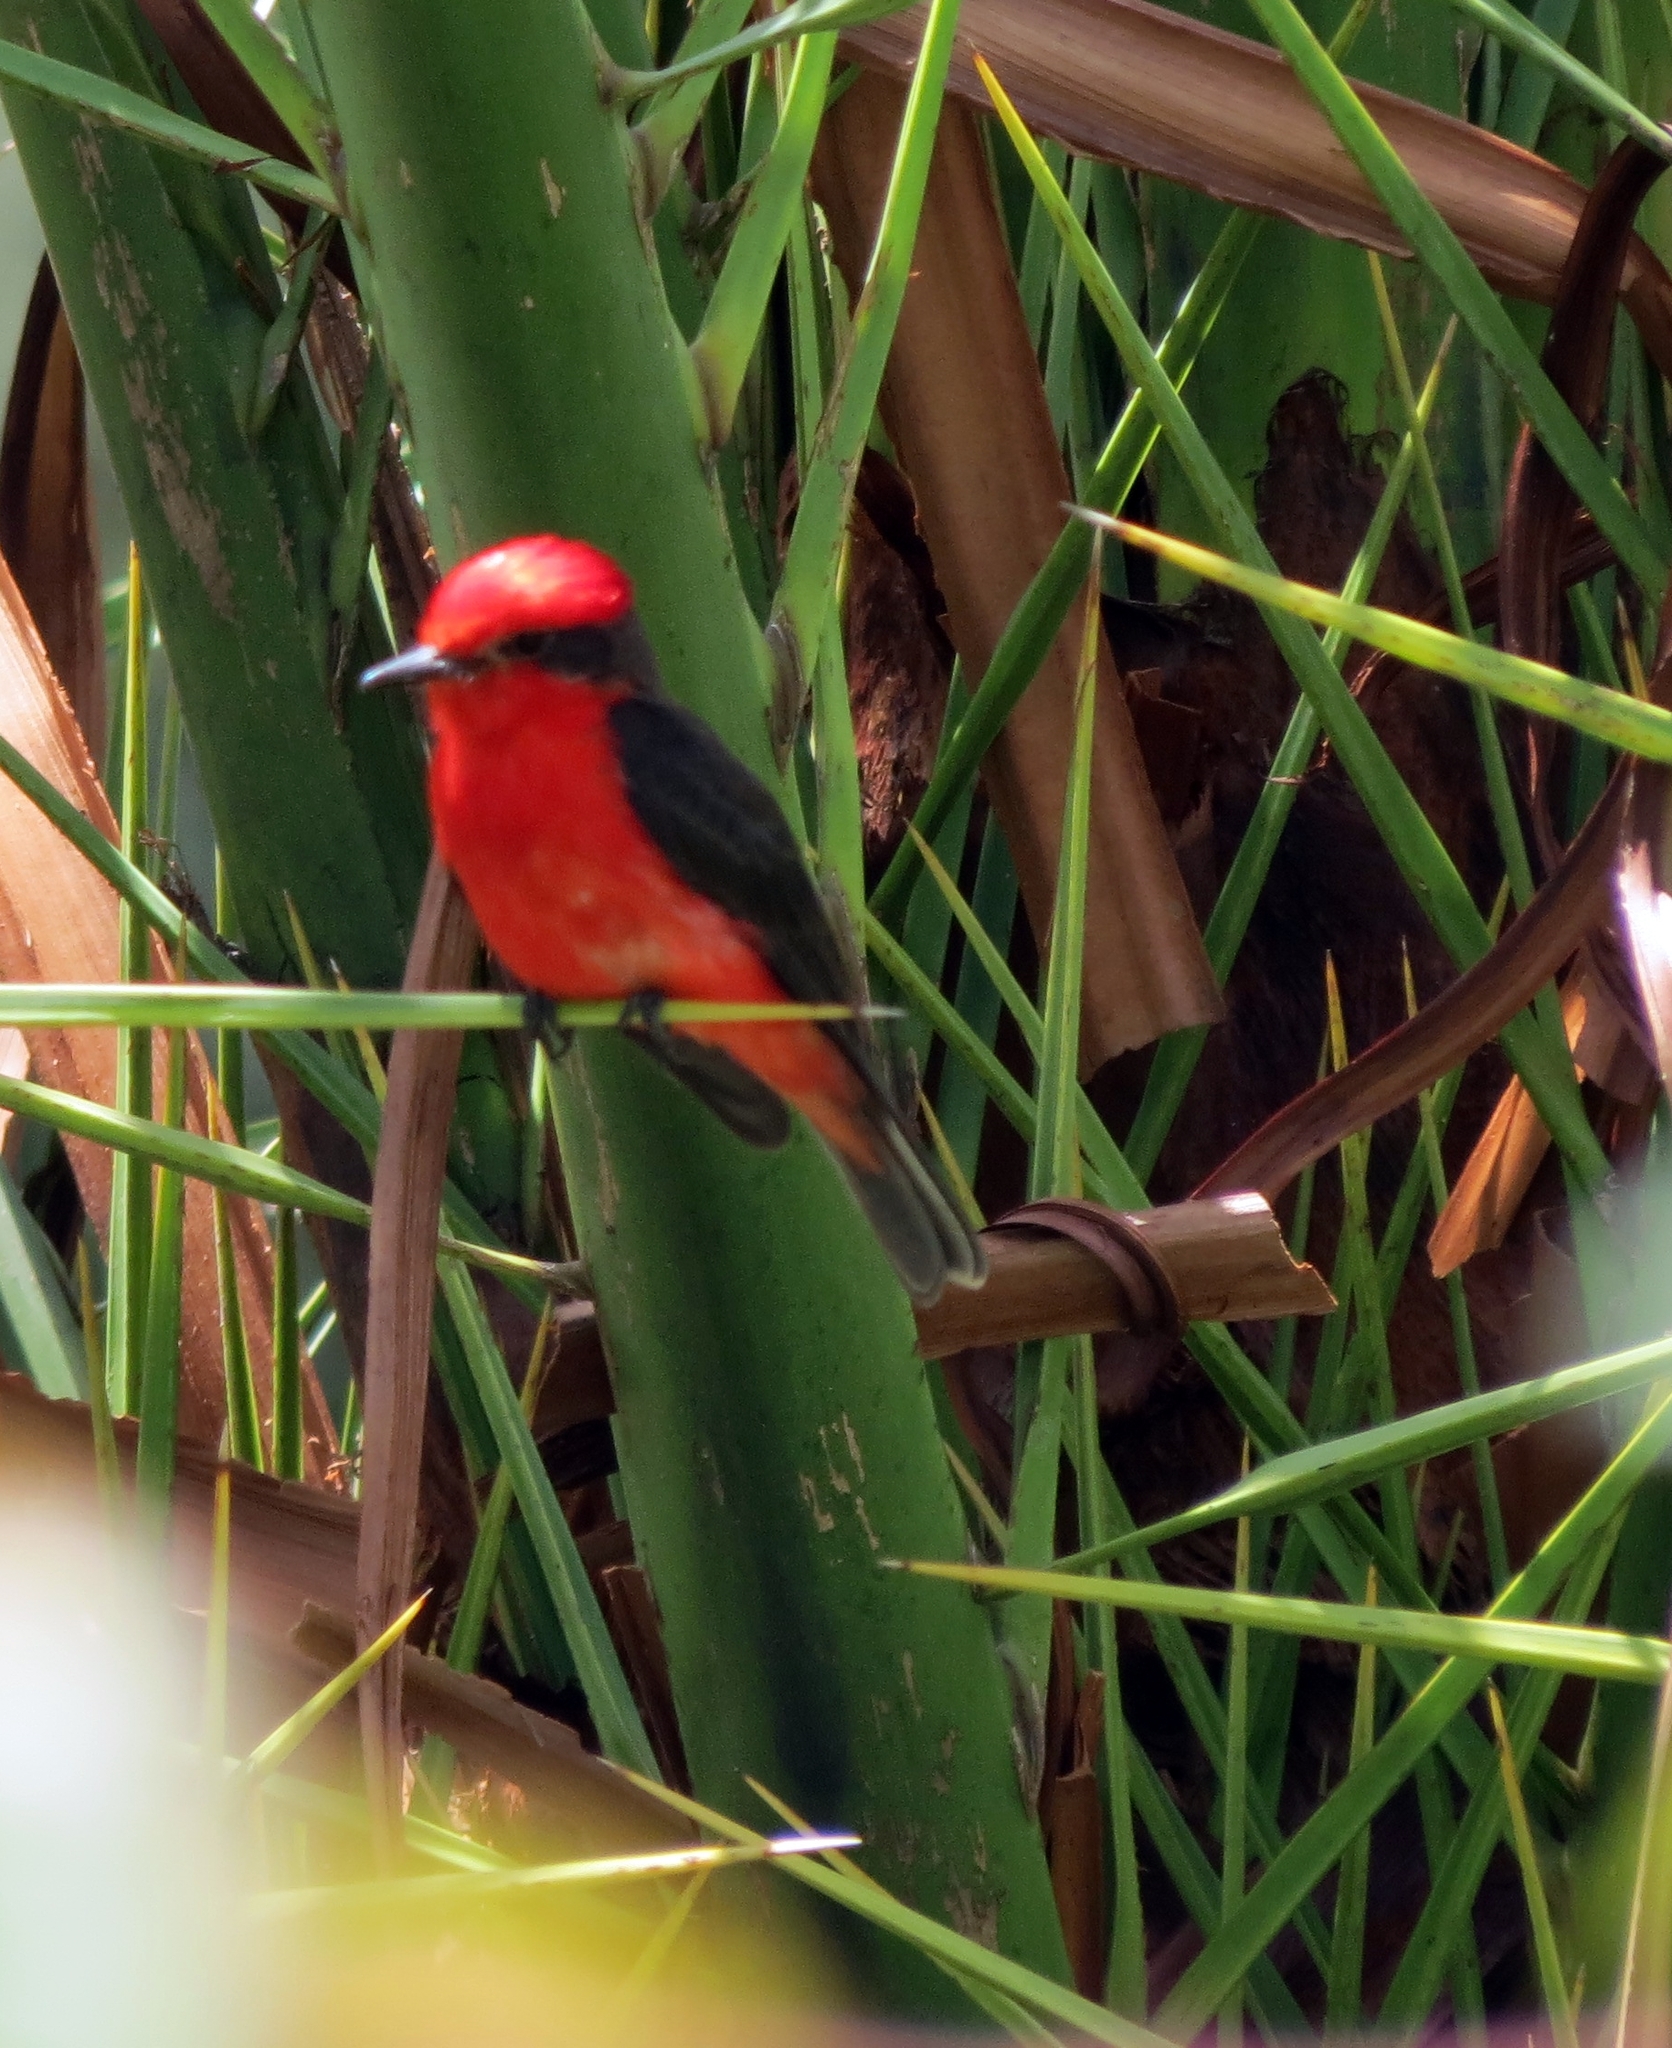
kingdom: Animalia
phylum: Chordata
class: Aves
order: Passeriformes
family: Tyrannidae
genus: Pyrocephalus
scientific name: Pyrocephalus rubinus
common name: Vermilion flycatcher
